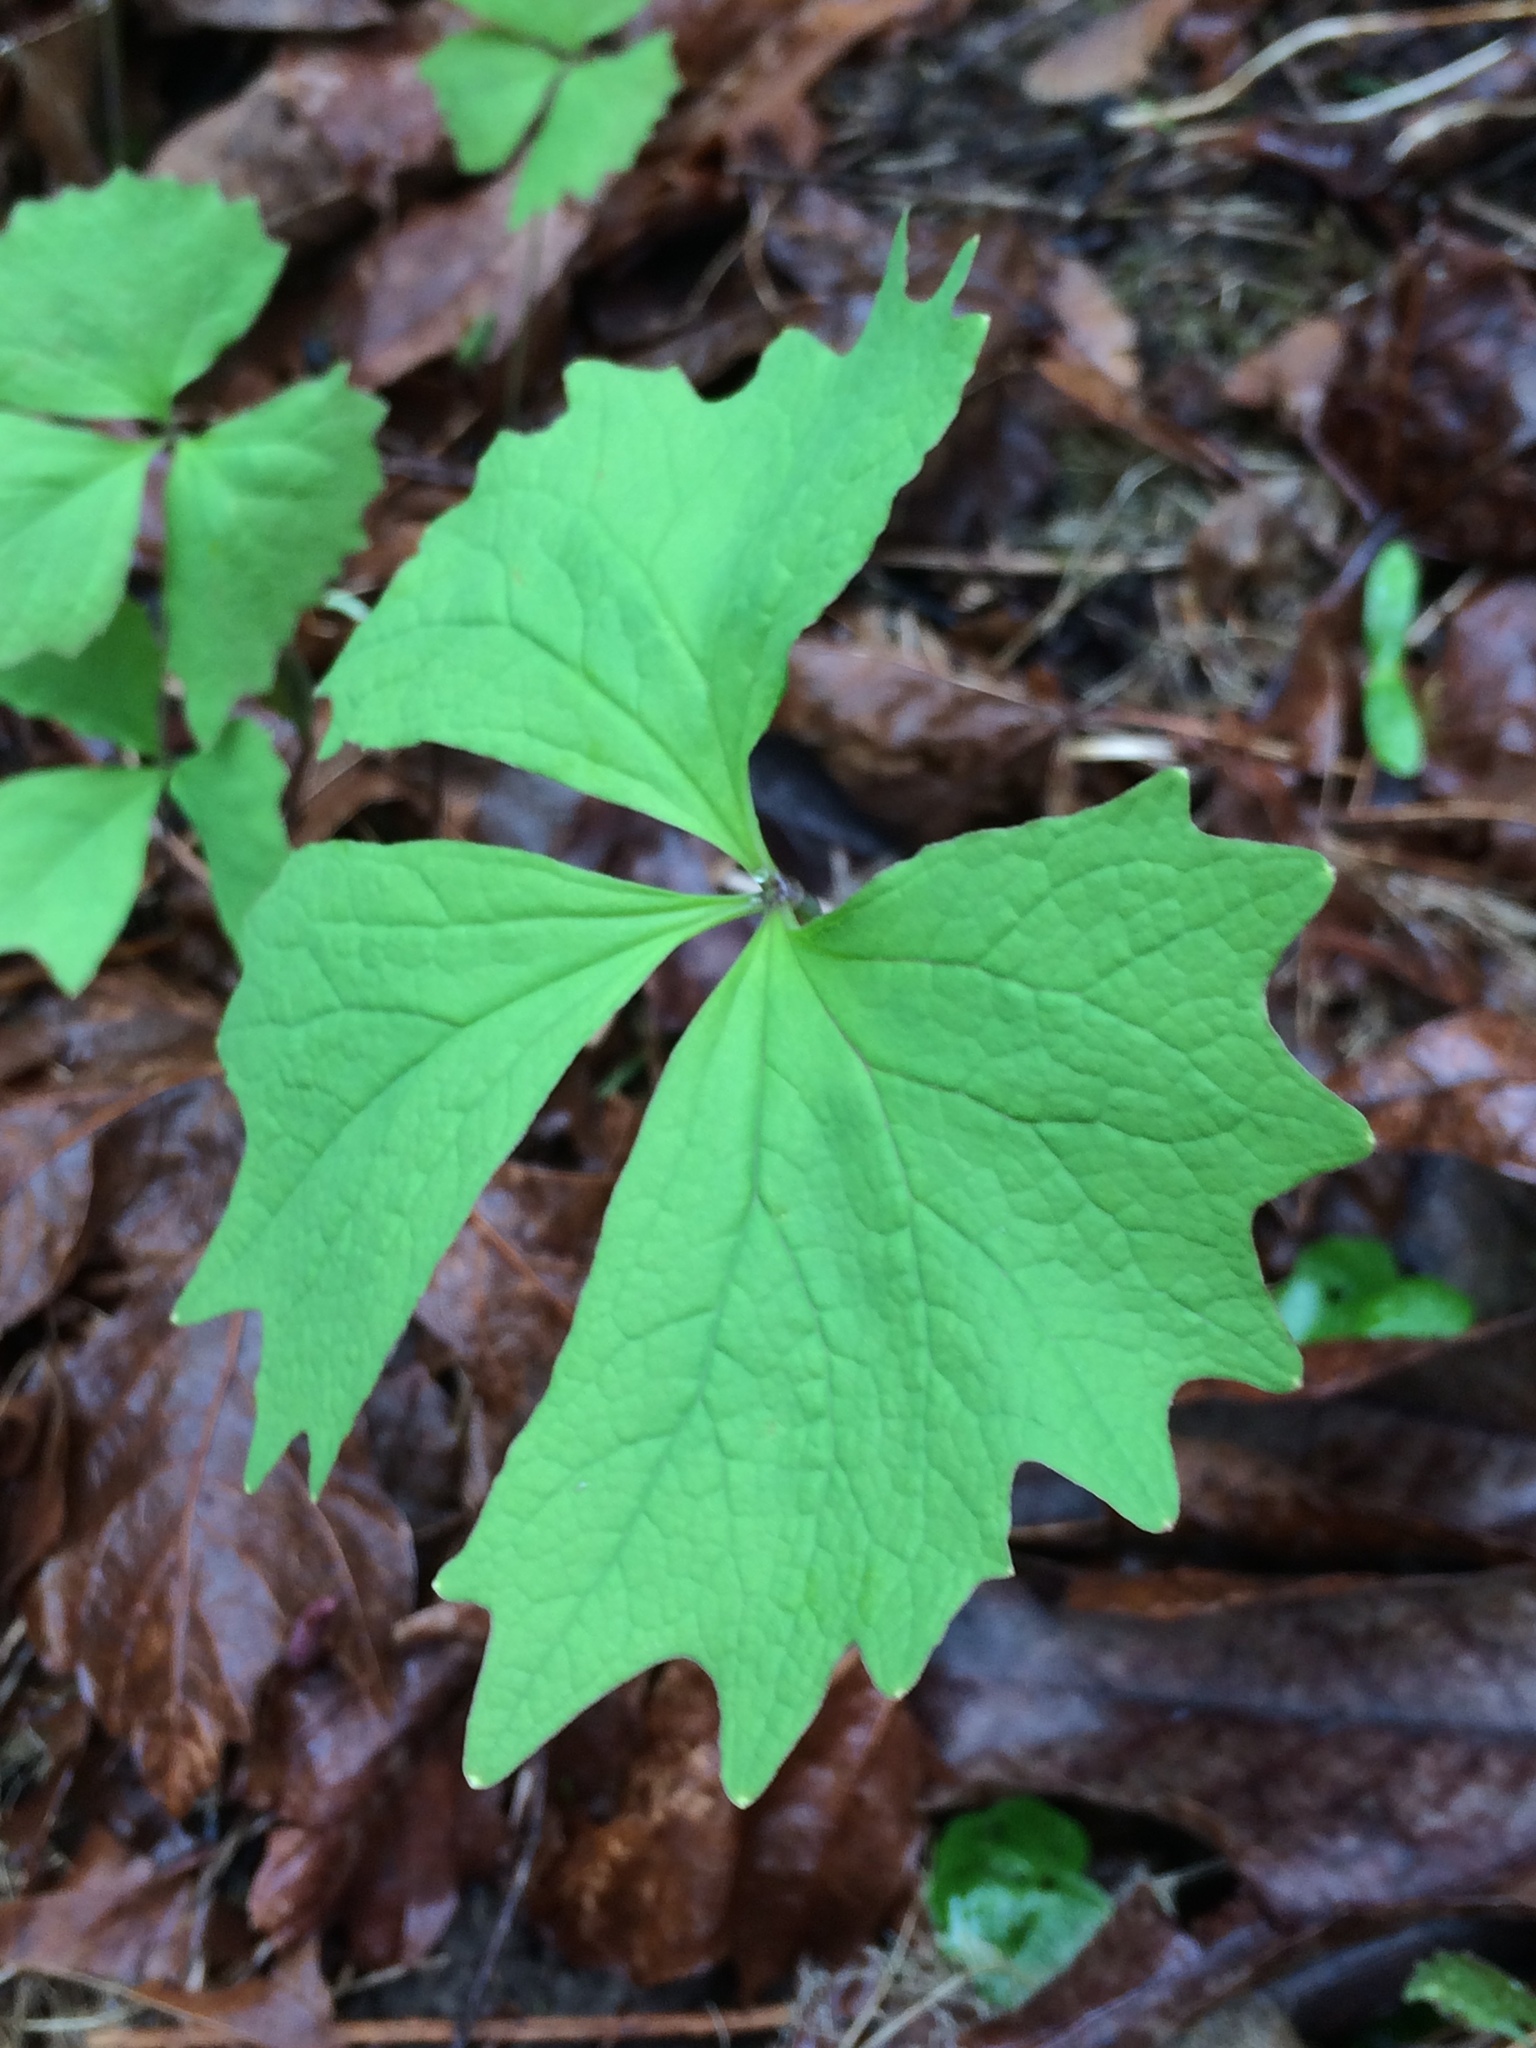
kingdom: Plantae
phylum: Tracheophyta
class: Magnoliopsida
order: Ranunculales
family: Berberidaceae
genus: Achlys
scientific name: Achlys triphylla
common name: Vanilla-leaf
